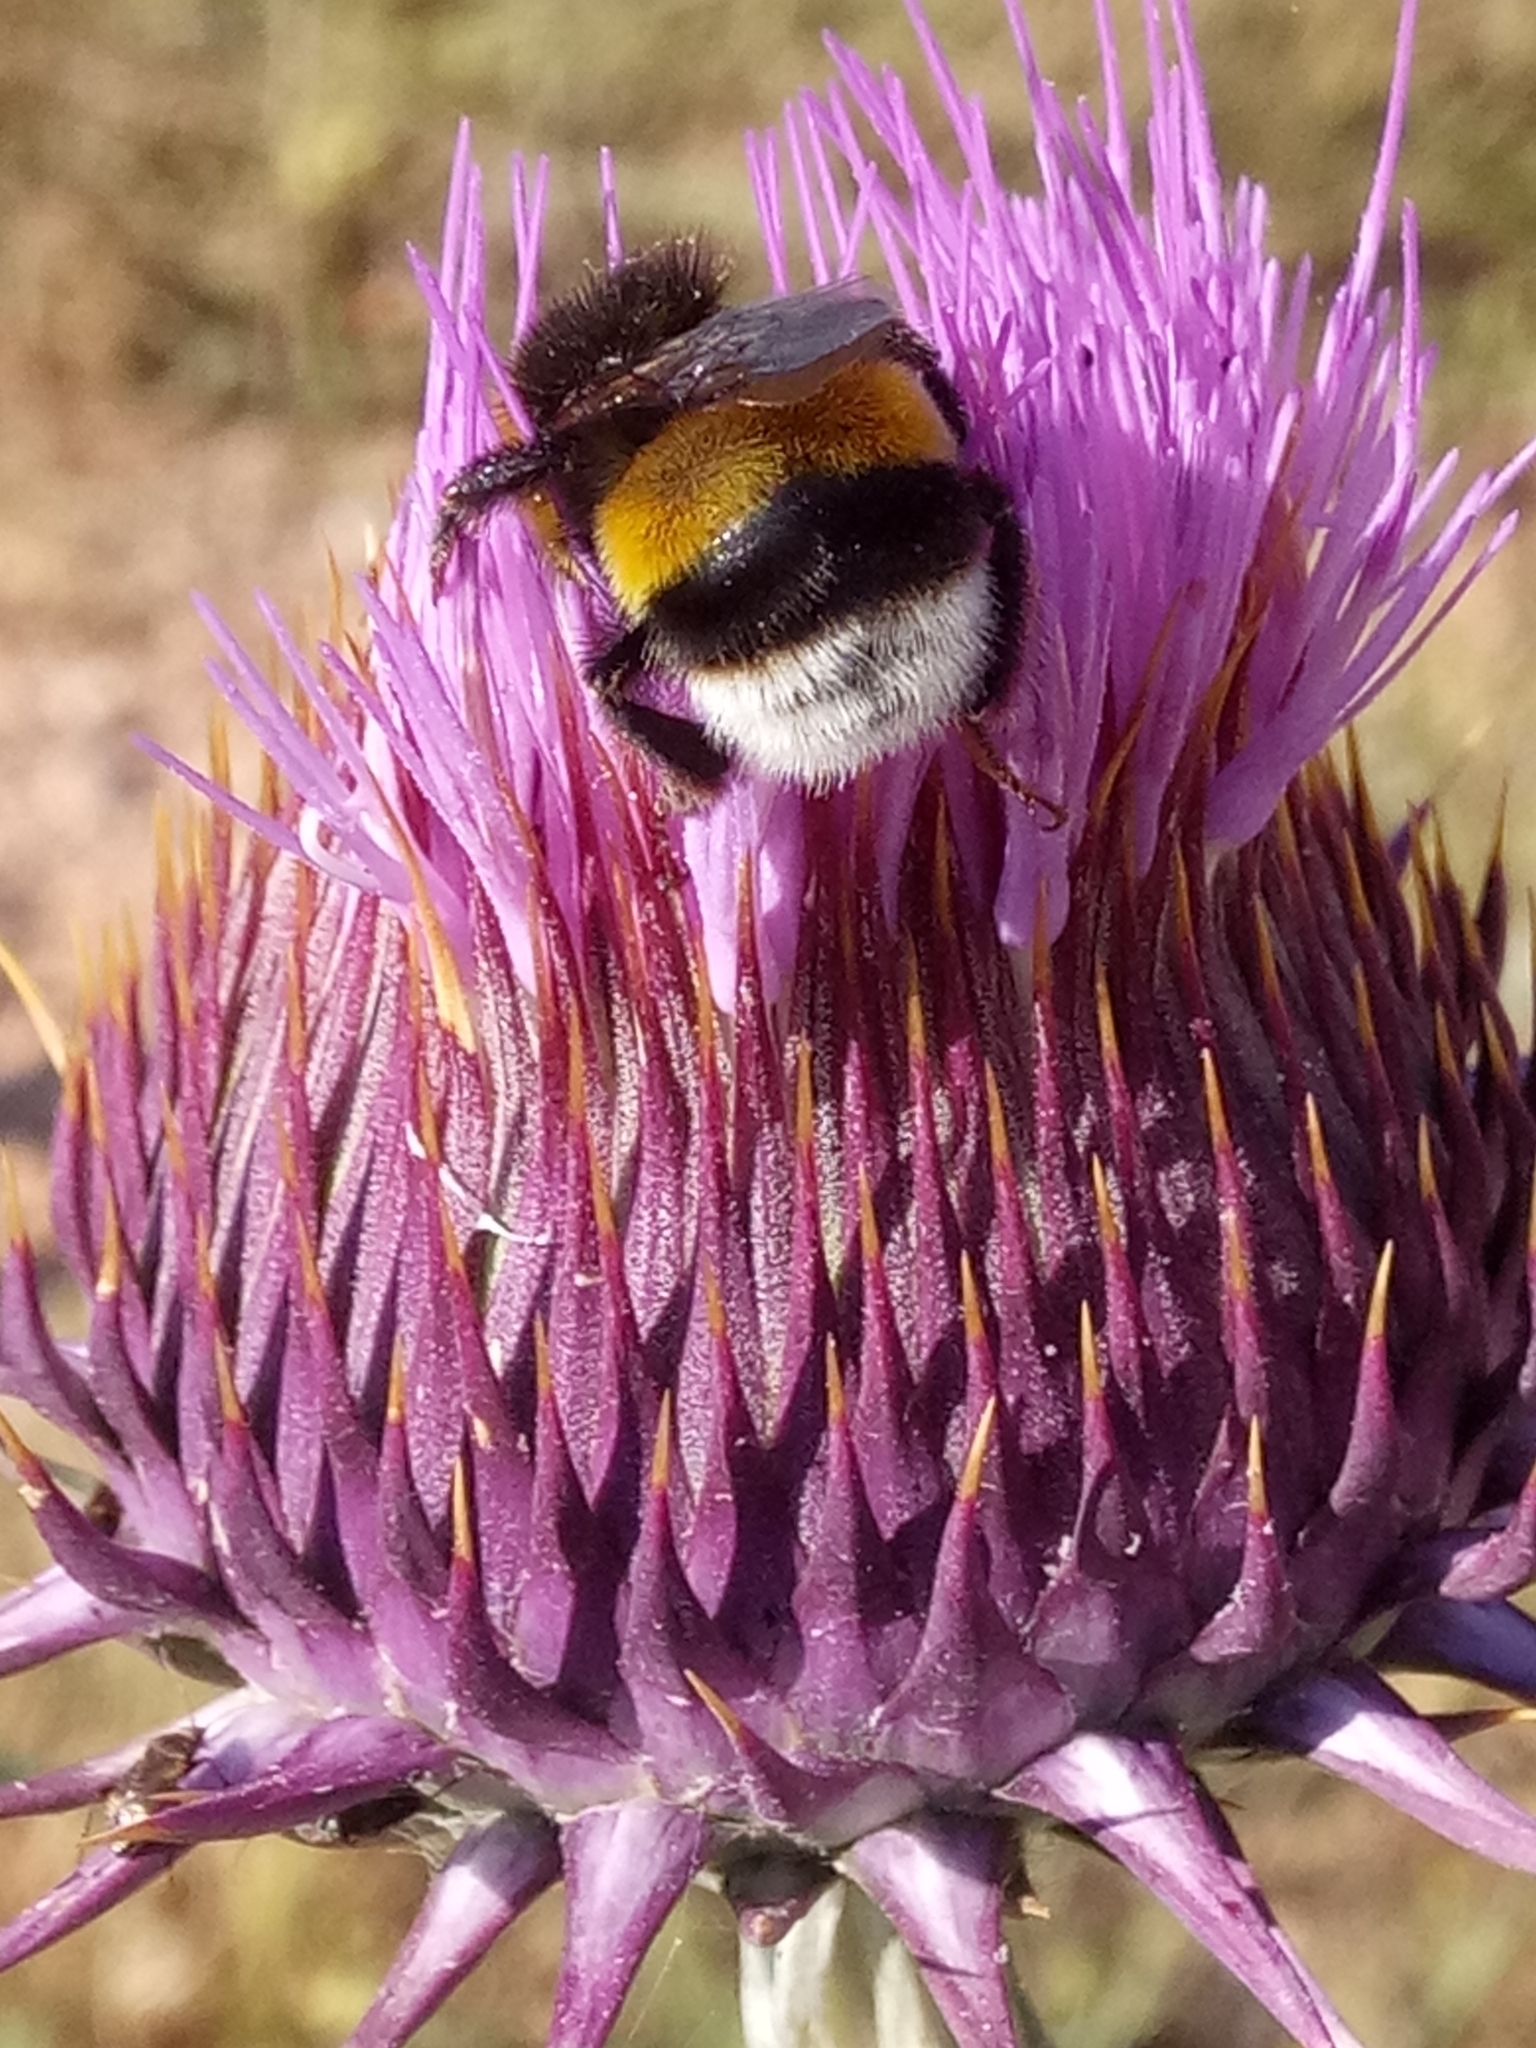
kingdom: Plantae
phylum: Tracheophyta
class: Magnoliopsida
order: Asterales
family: Asteraceae
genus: Onopordum
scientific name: Onopordum macracanthum
